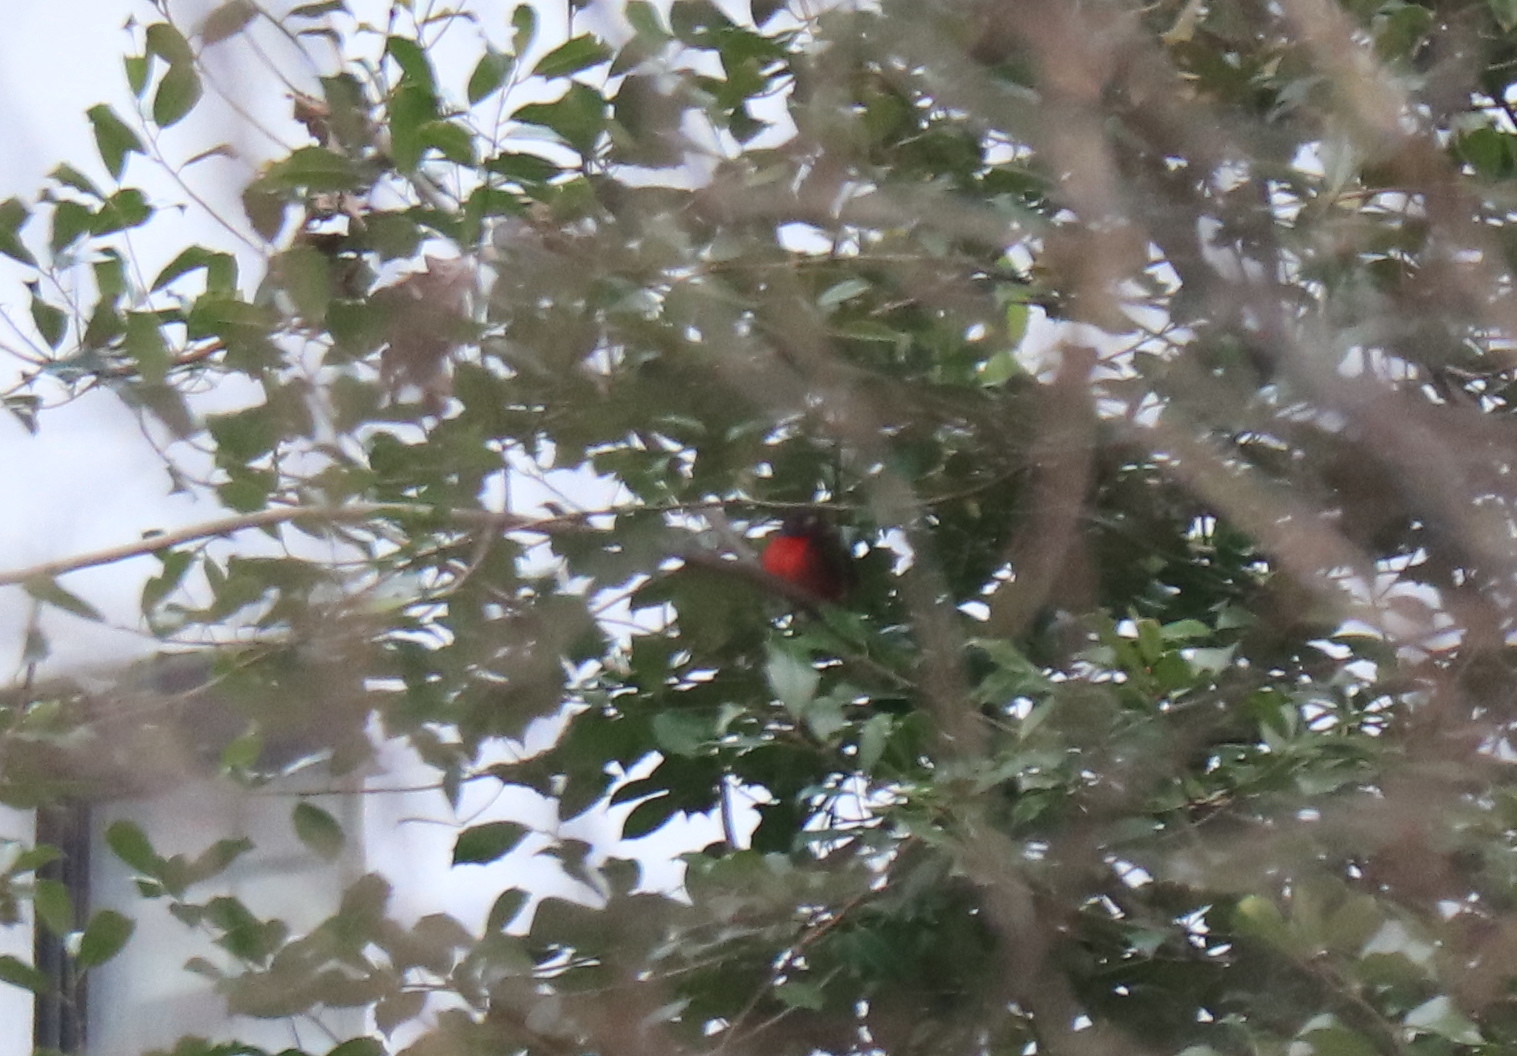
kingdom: Animalia
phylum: Chordata
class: Aves
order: Passeriformes
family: Cardinalidae
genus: Passerina
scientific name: Passerina ciris
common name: Painted bunting
